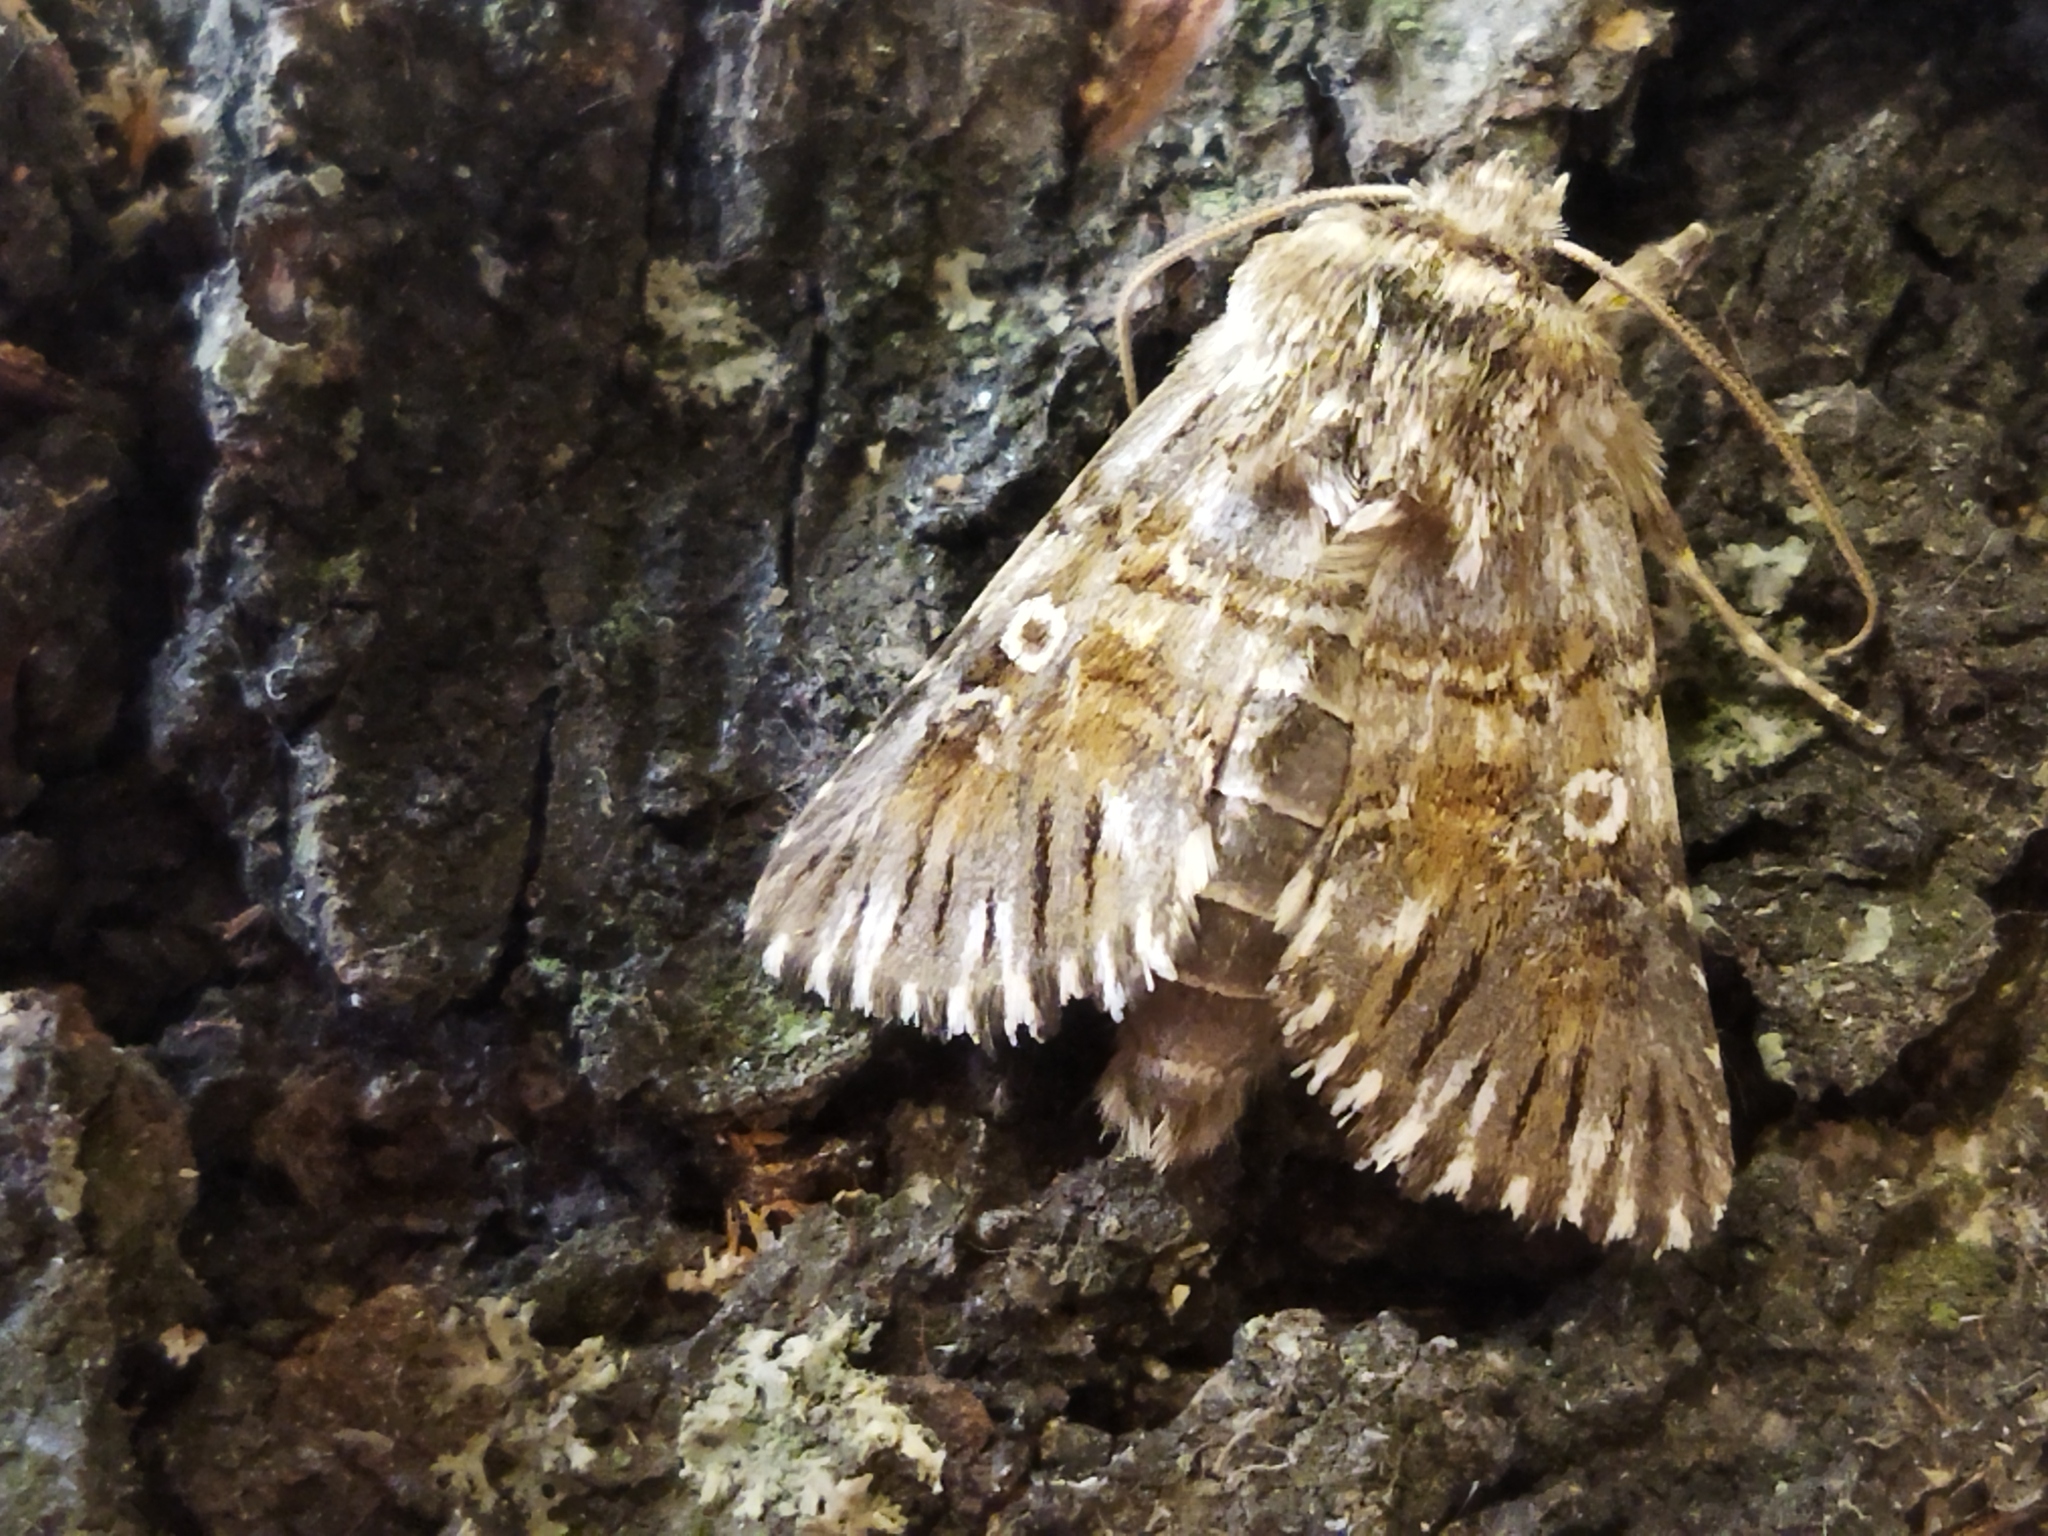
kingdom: Animalia
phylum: Arthropoda
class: Insecta
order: Lepidoptera
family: Noctuidae
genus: Omphalophana
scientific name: Omphalophana antirrhinii
